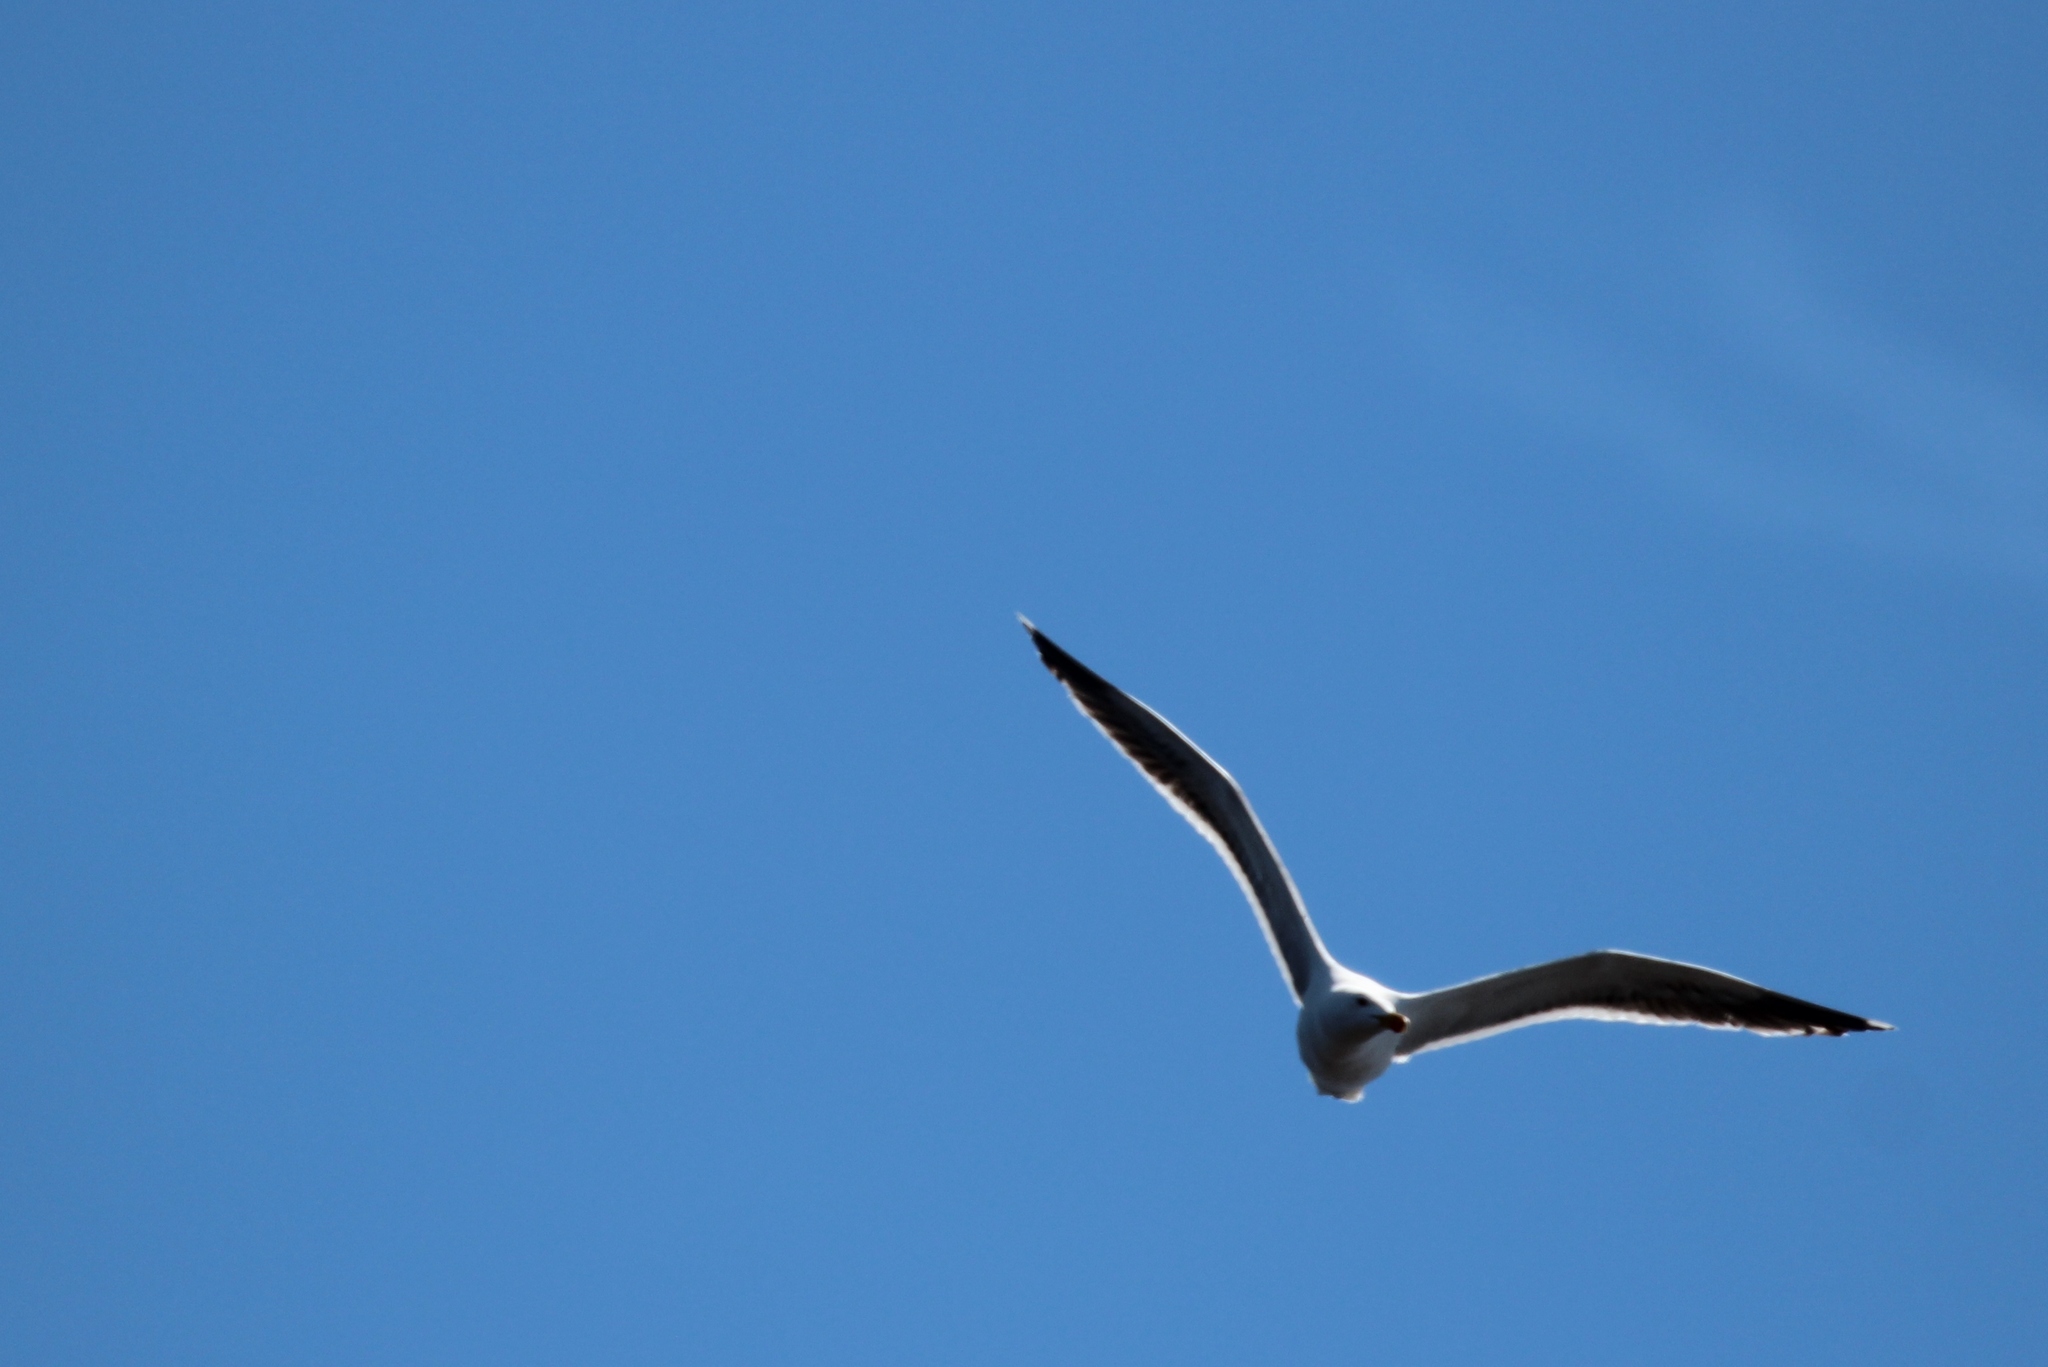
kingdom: Animalia
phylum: Chordata
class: Aves
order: Charadriiformes
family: Laridae
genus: Larus
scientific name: Larus marinus
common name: Great black-backed gull
